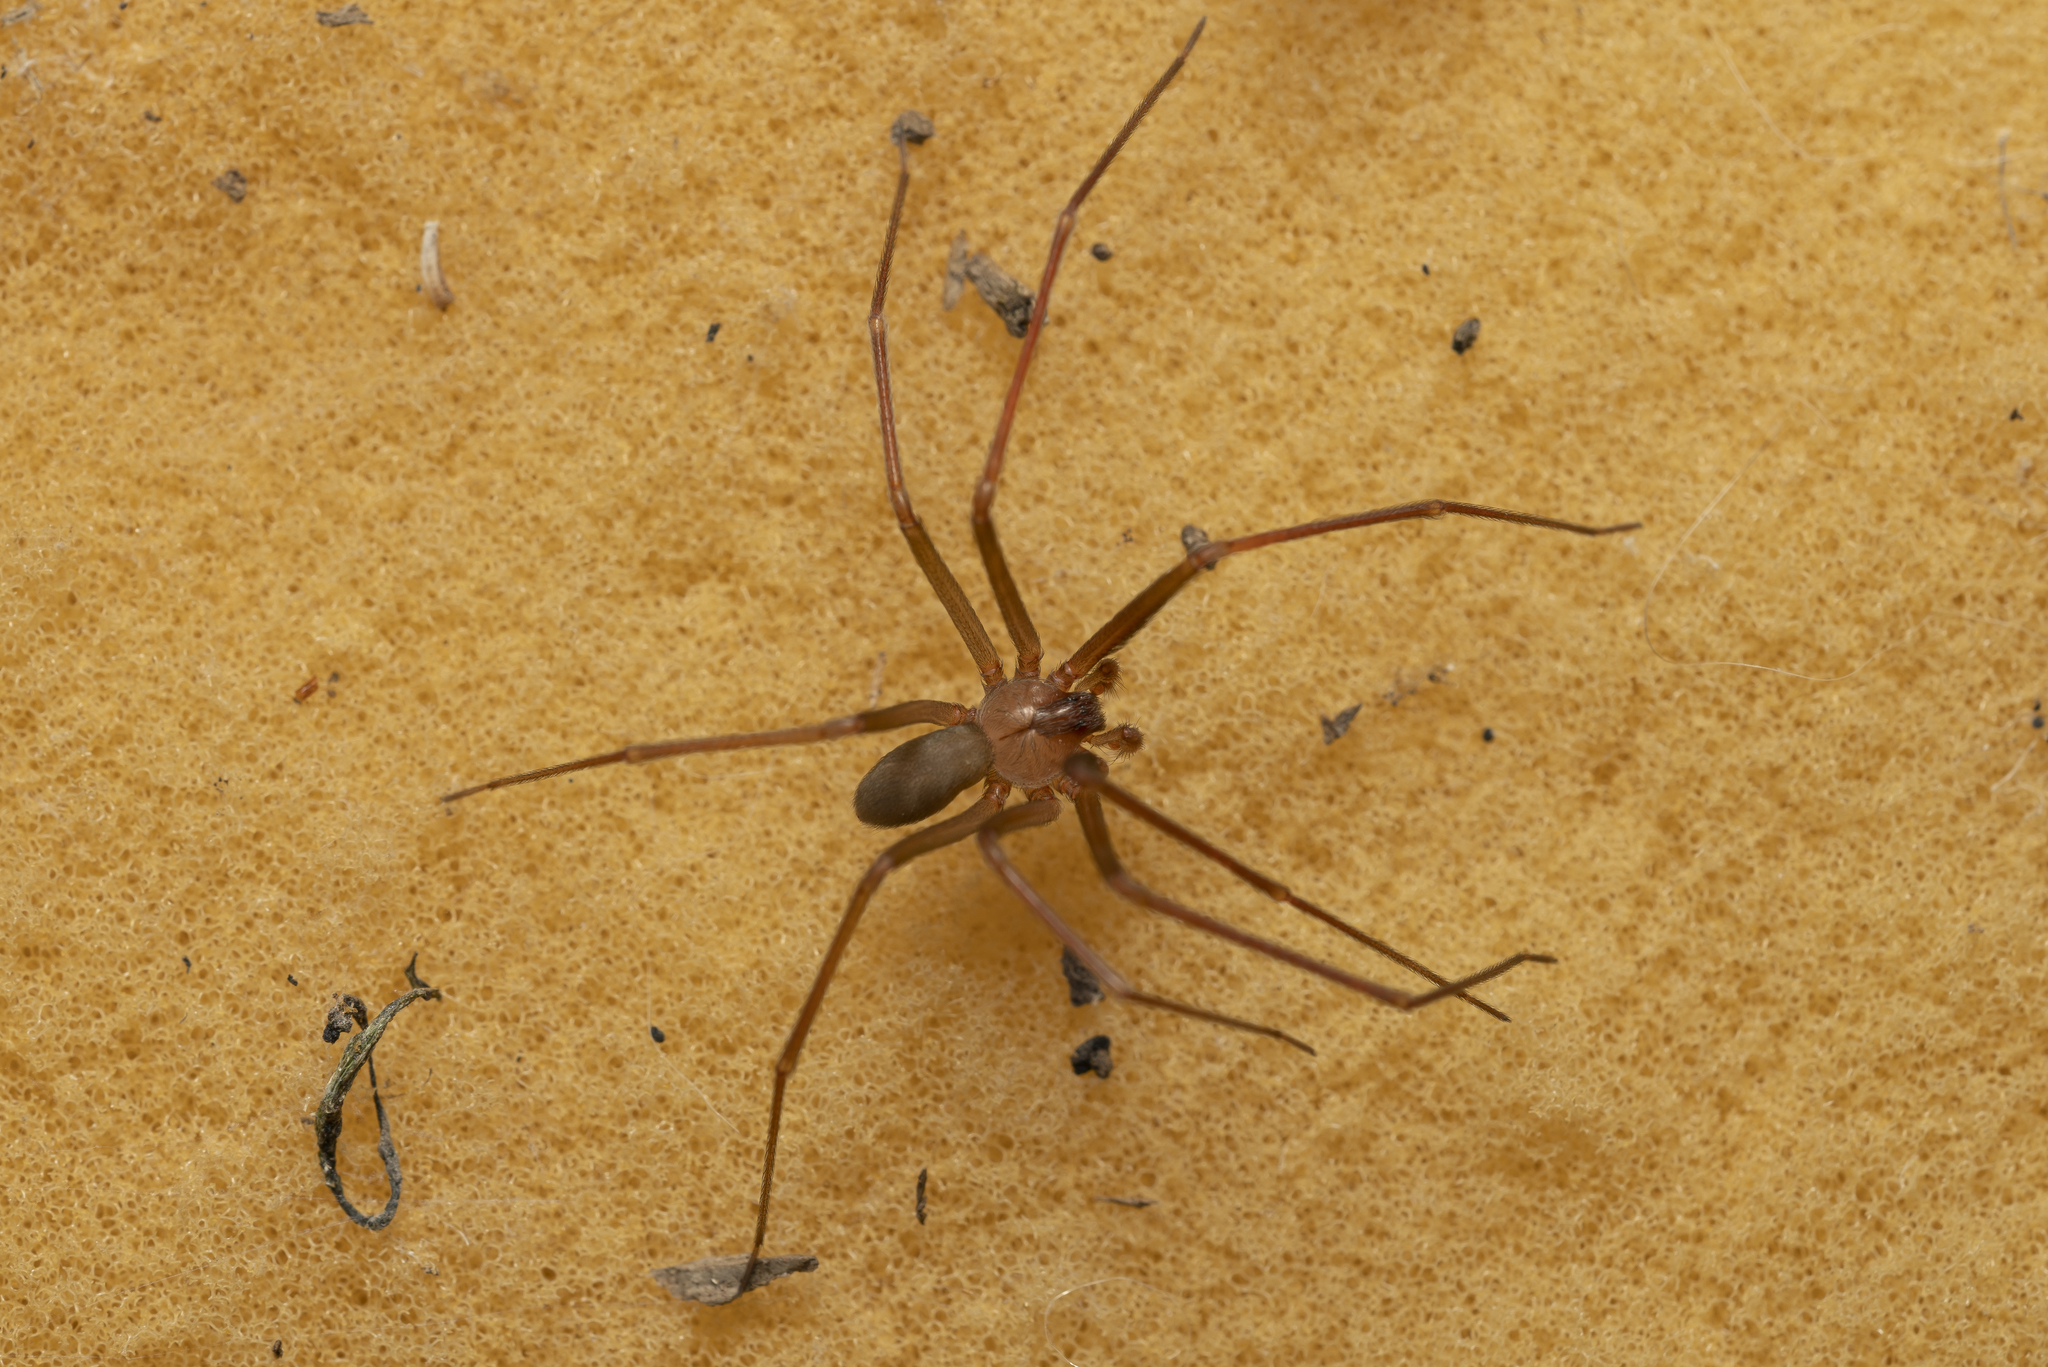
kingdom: Animalia
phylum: Arthropoda
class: Arachnida
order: Araneae
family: Sicariidae
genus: Loxosceles
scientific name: Loxosceles rufescens
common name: Mediterranean recluse spider
